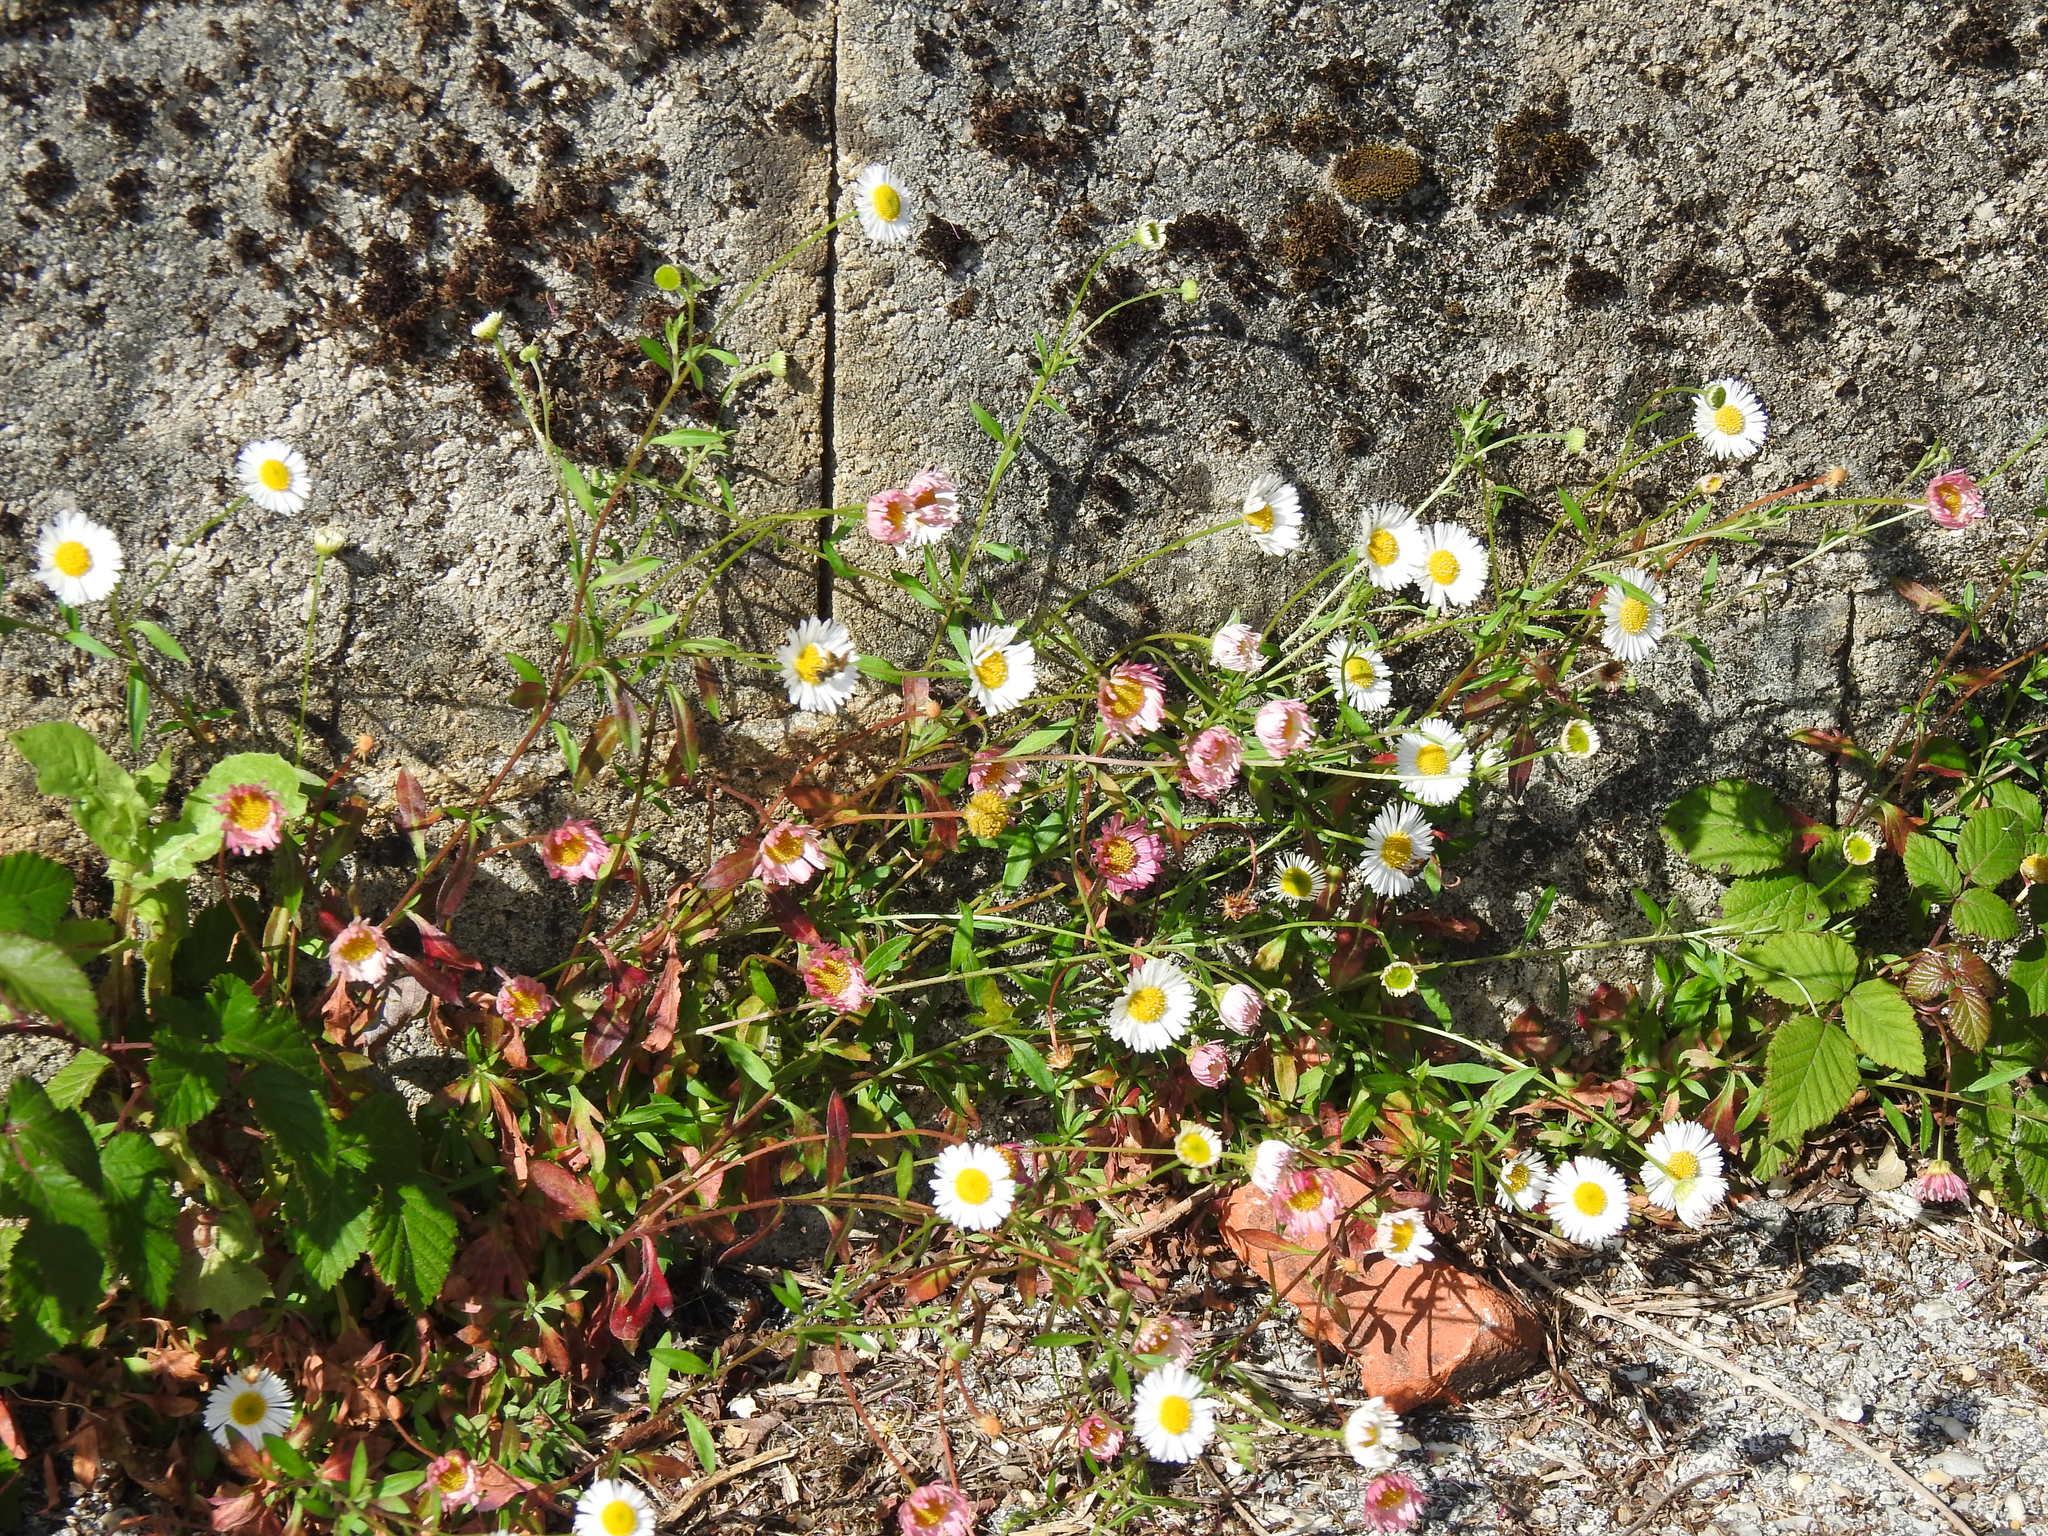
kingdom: Plantae
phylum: Tracheophyta
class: Magnoliopsida
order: Asterales
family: Asteraceae
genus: Erigeron
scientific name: Erigeron karvinskianus
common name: Mexican fleabane
